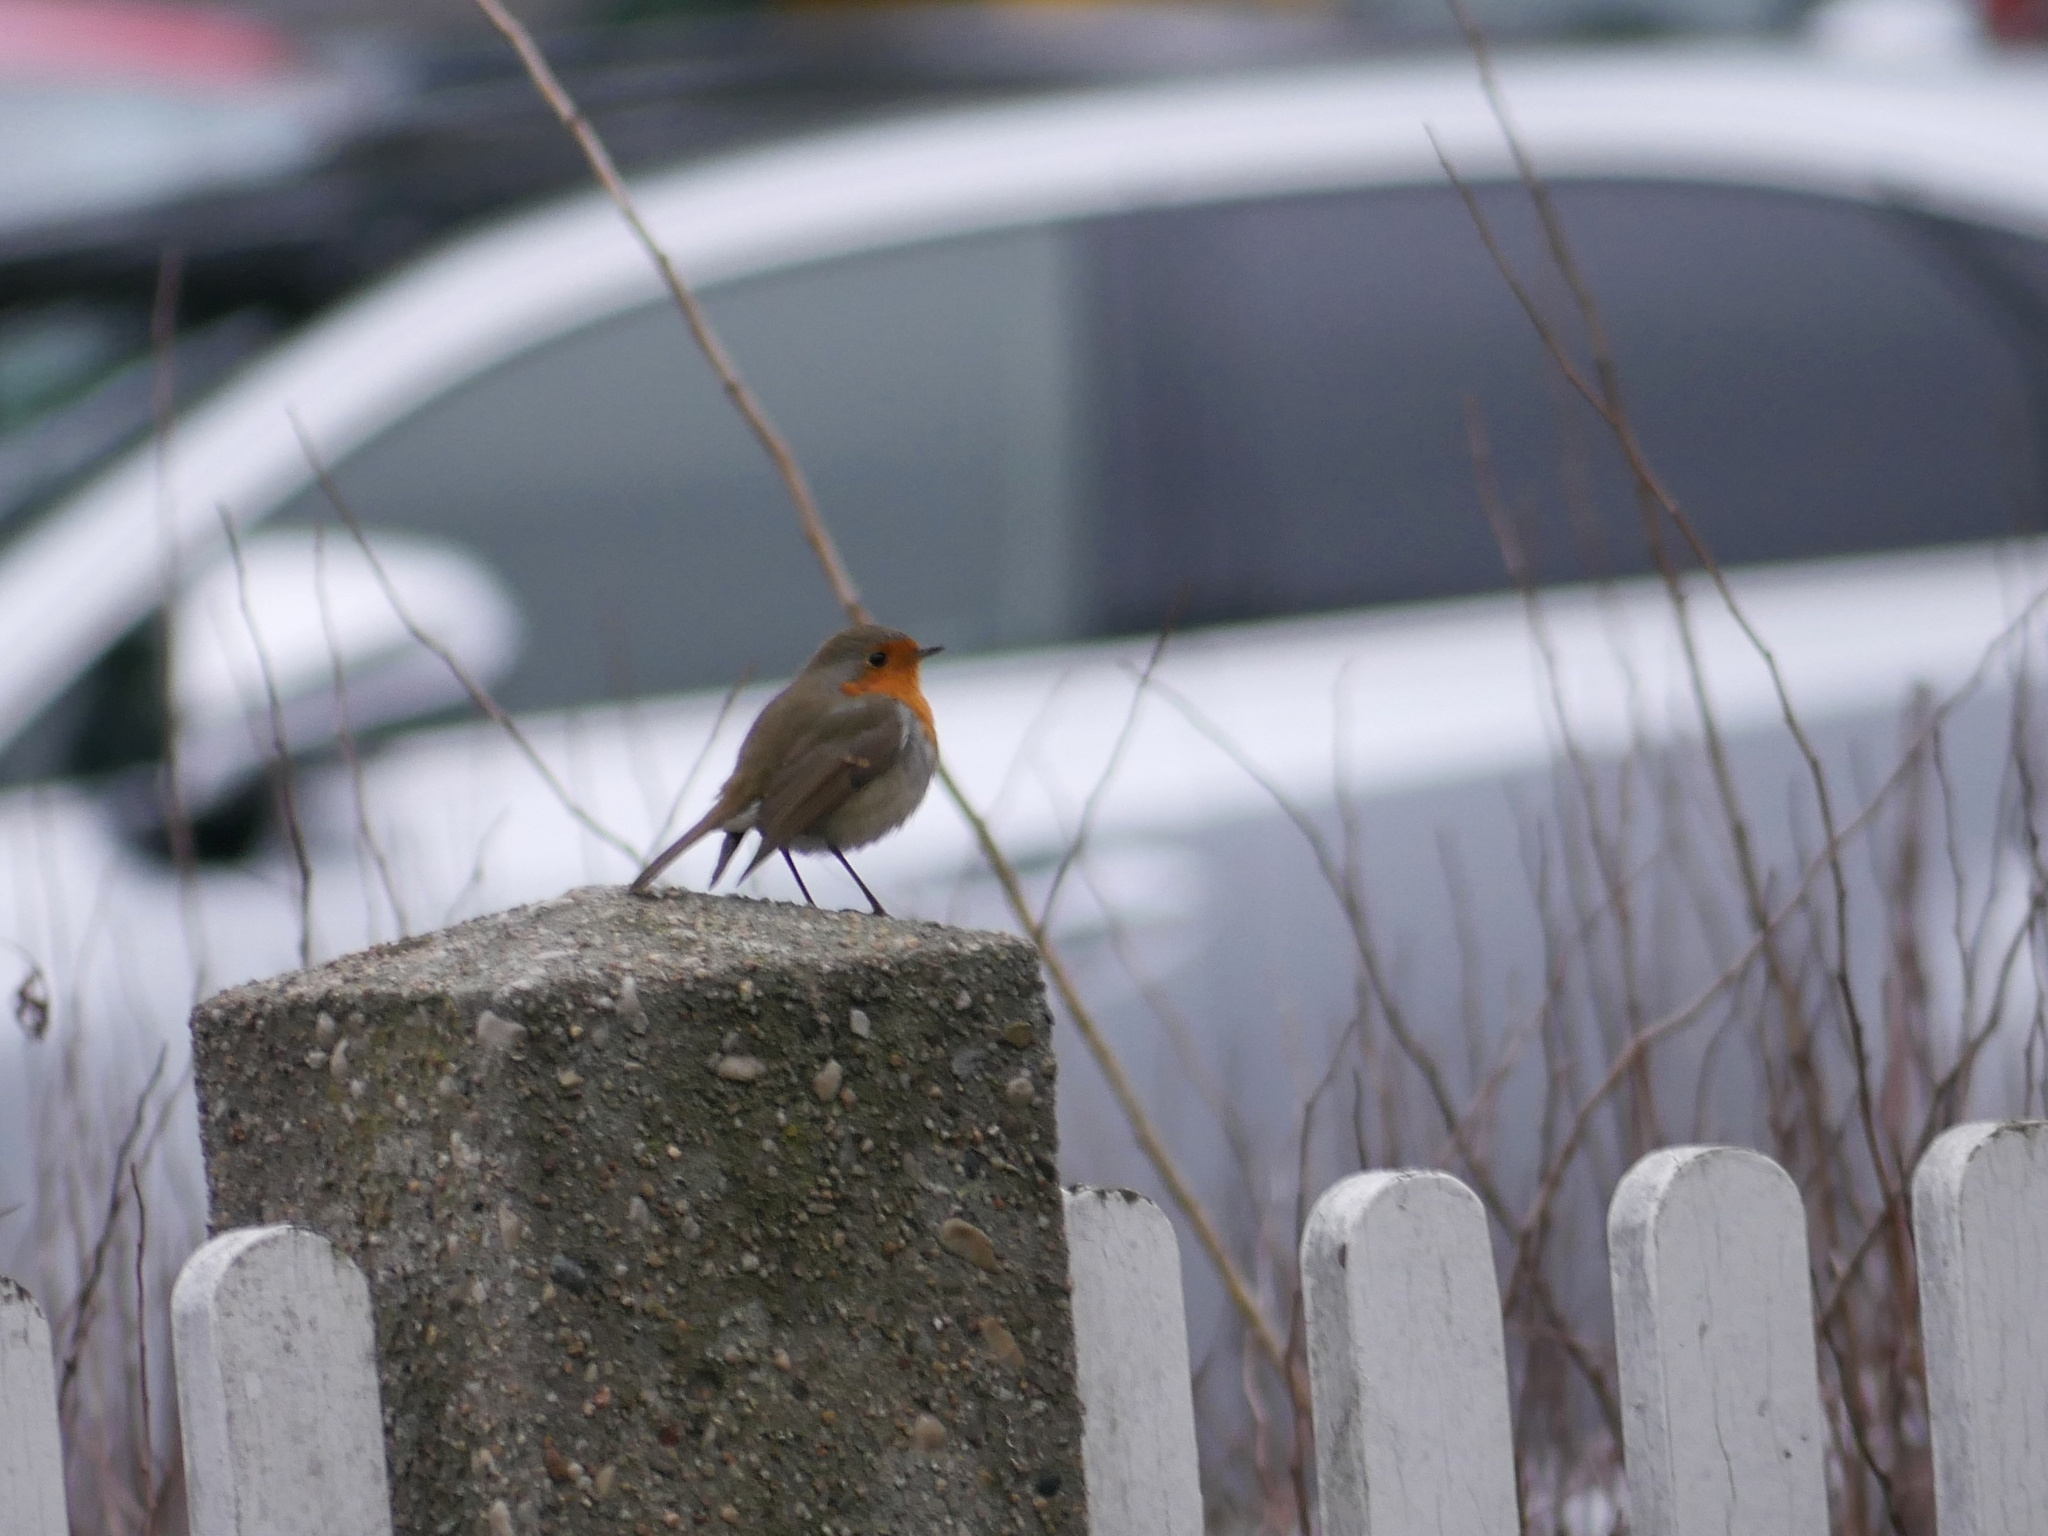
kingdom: Animalia
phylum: Chordata
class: Aves
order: Passeriformes
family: Muscicapidae
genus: Erithacus
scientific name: Erithacus rubecula
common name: European robin
